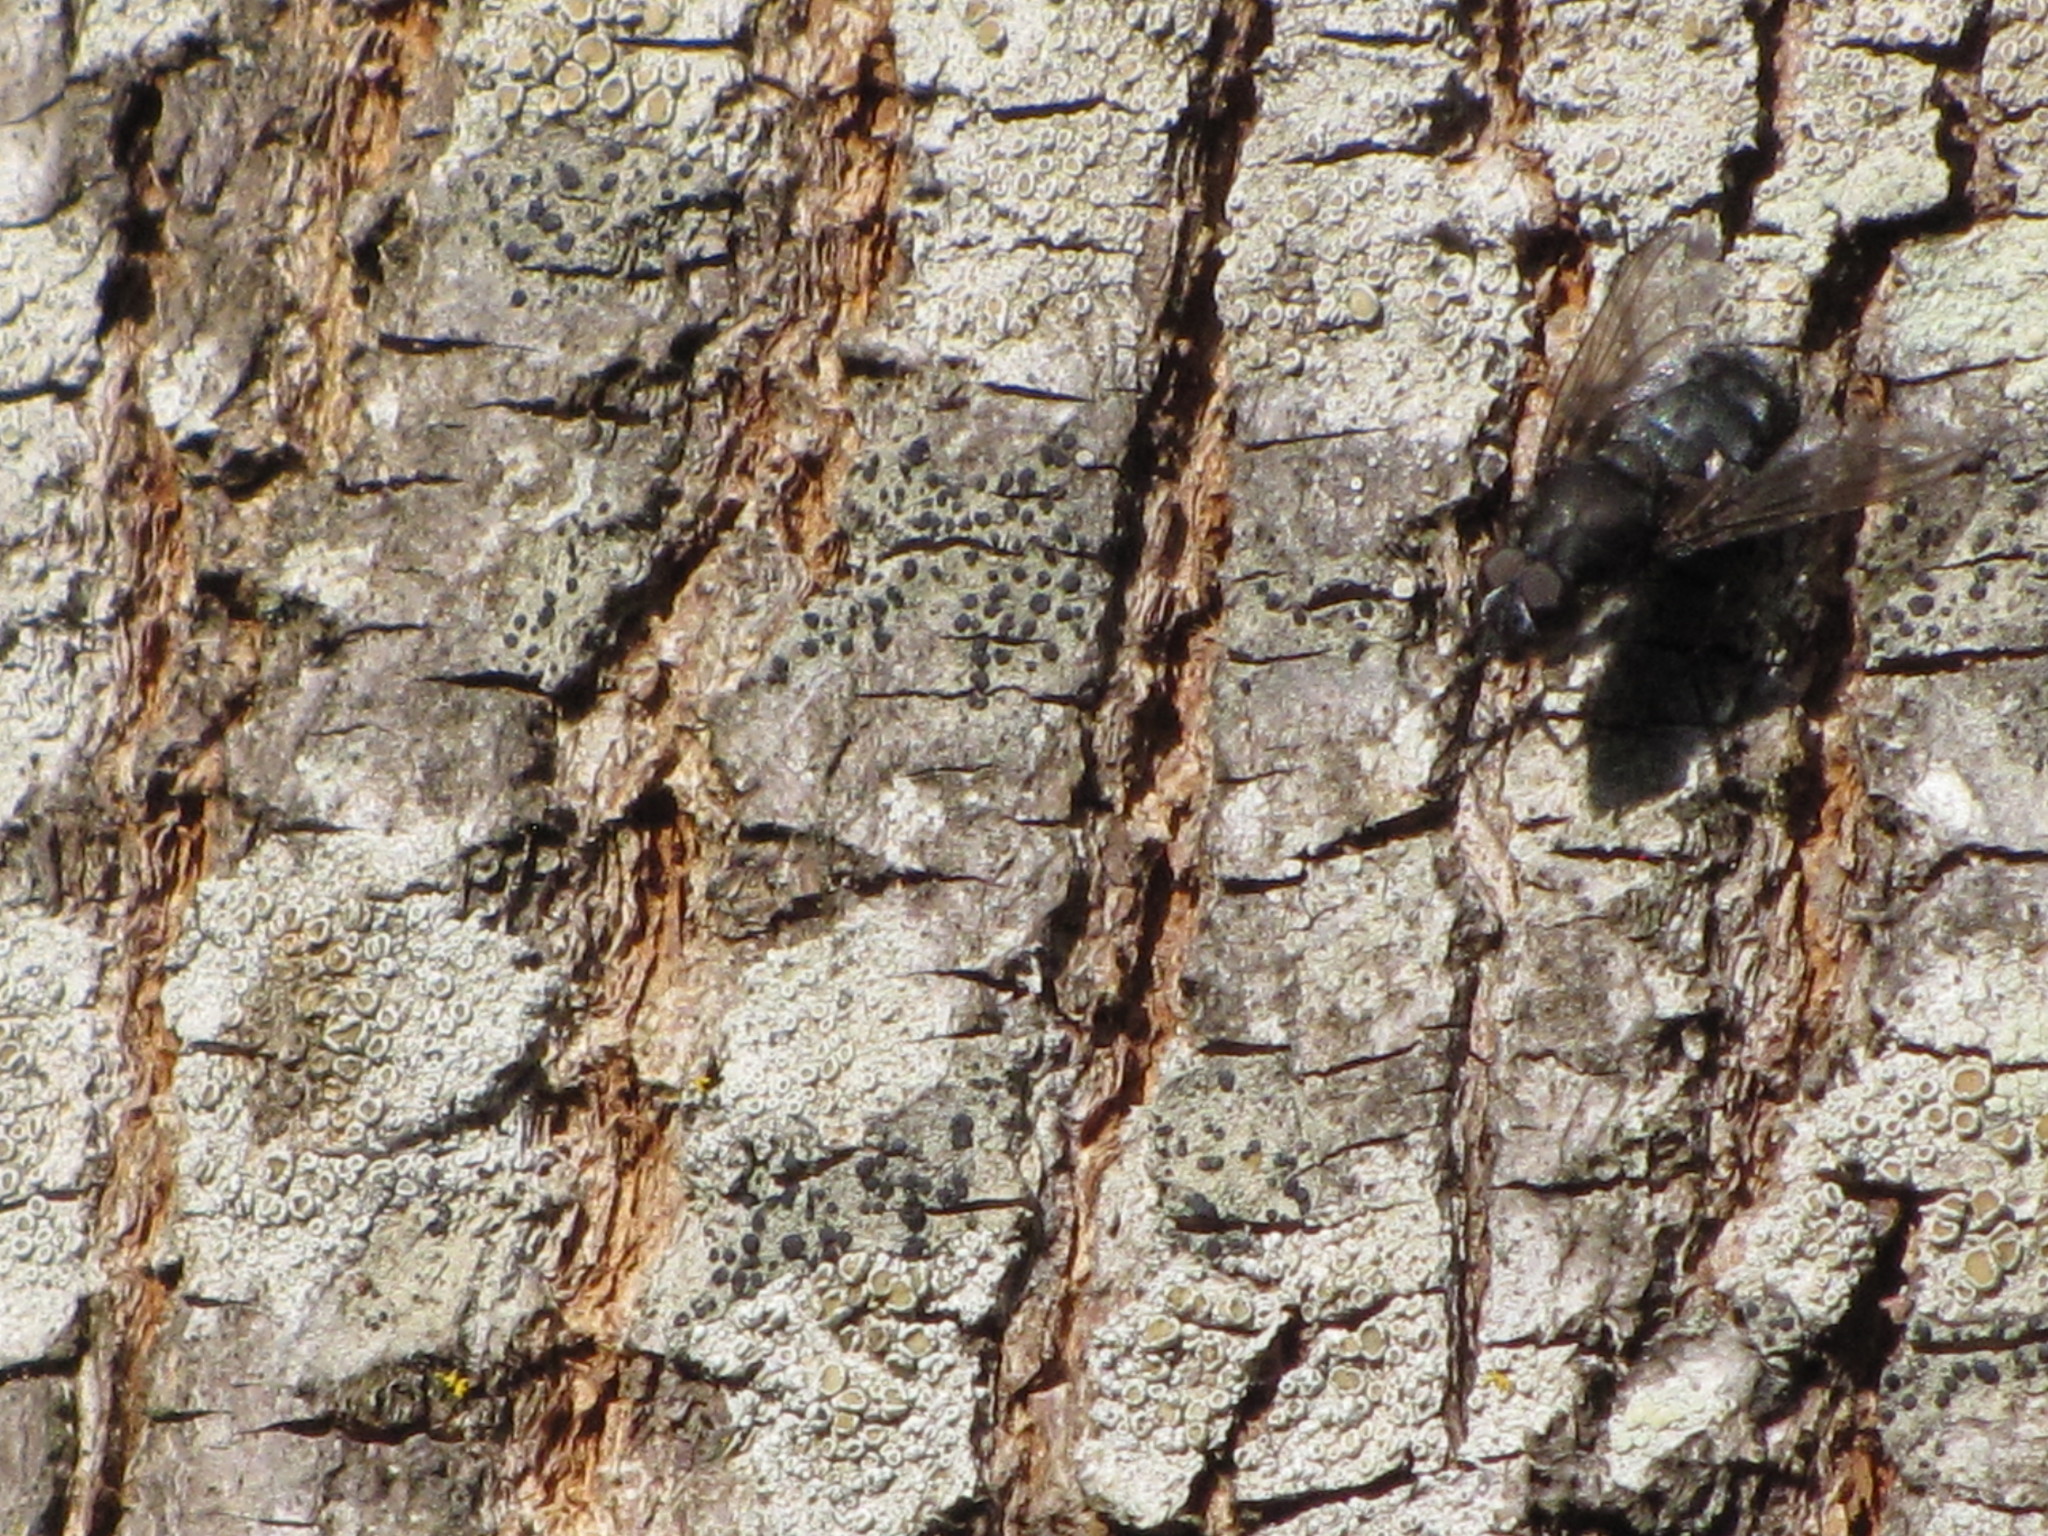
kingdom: Animalia
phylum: Arthropoda
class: Insecta
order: Diptera
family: Polleniidae
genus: Pollenia
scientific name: Pollenia vagabunda
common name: Vagabund cluster fly
